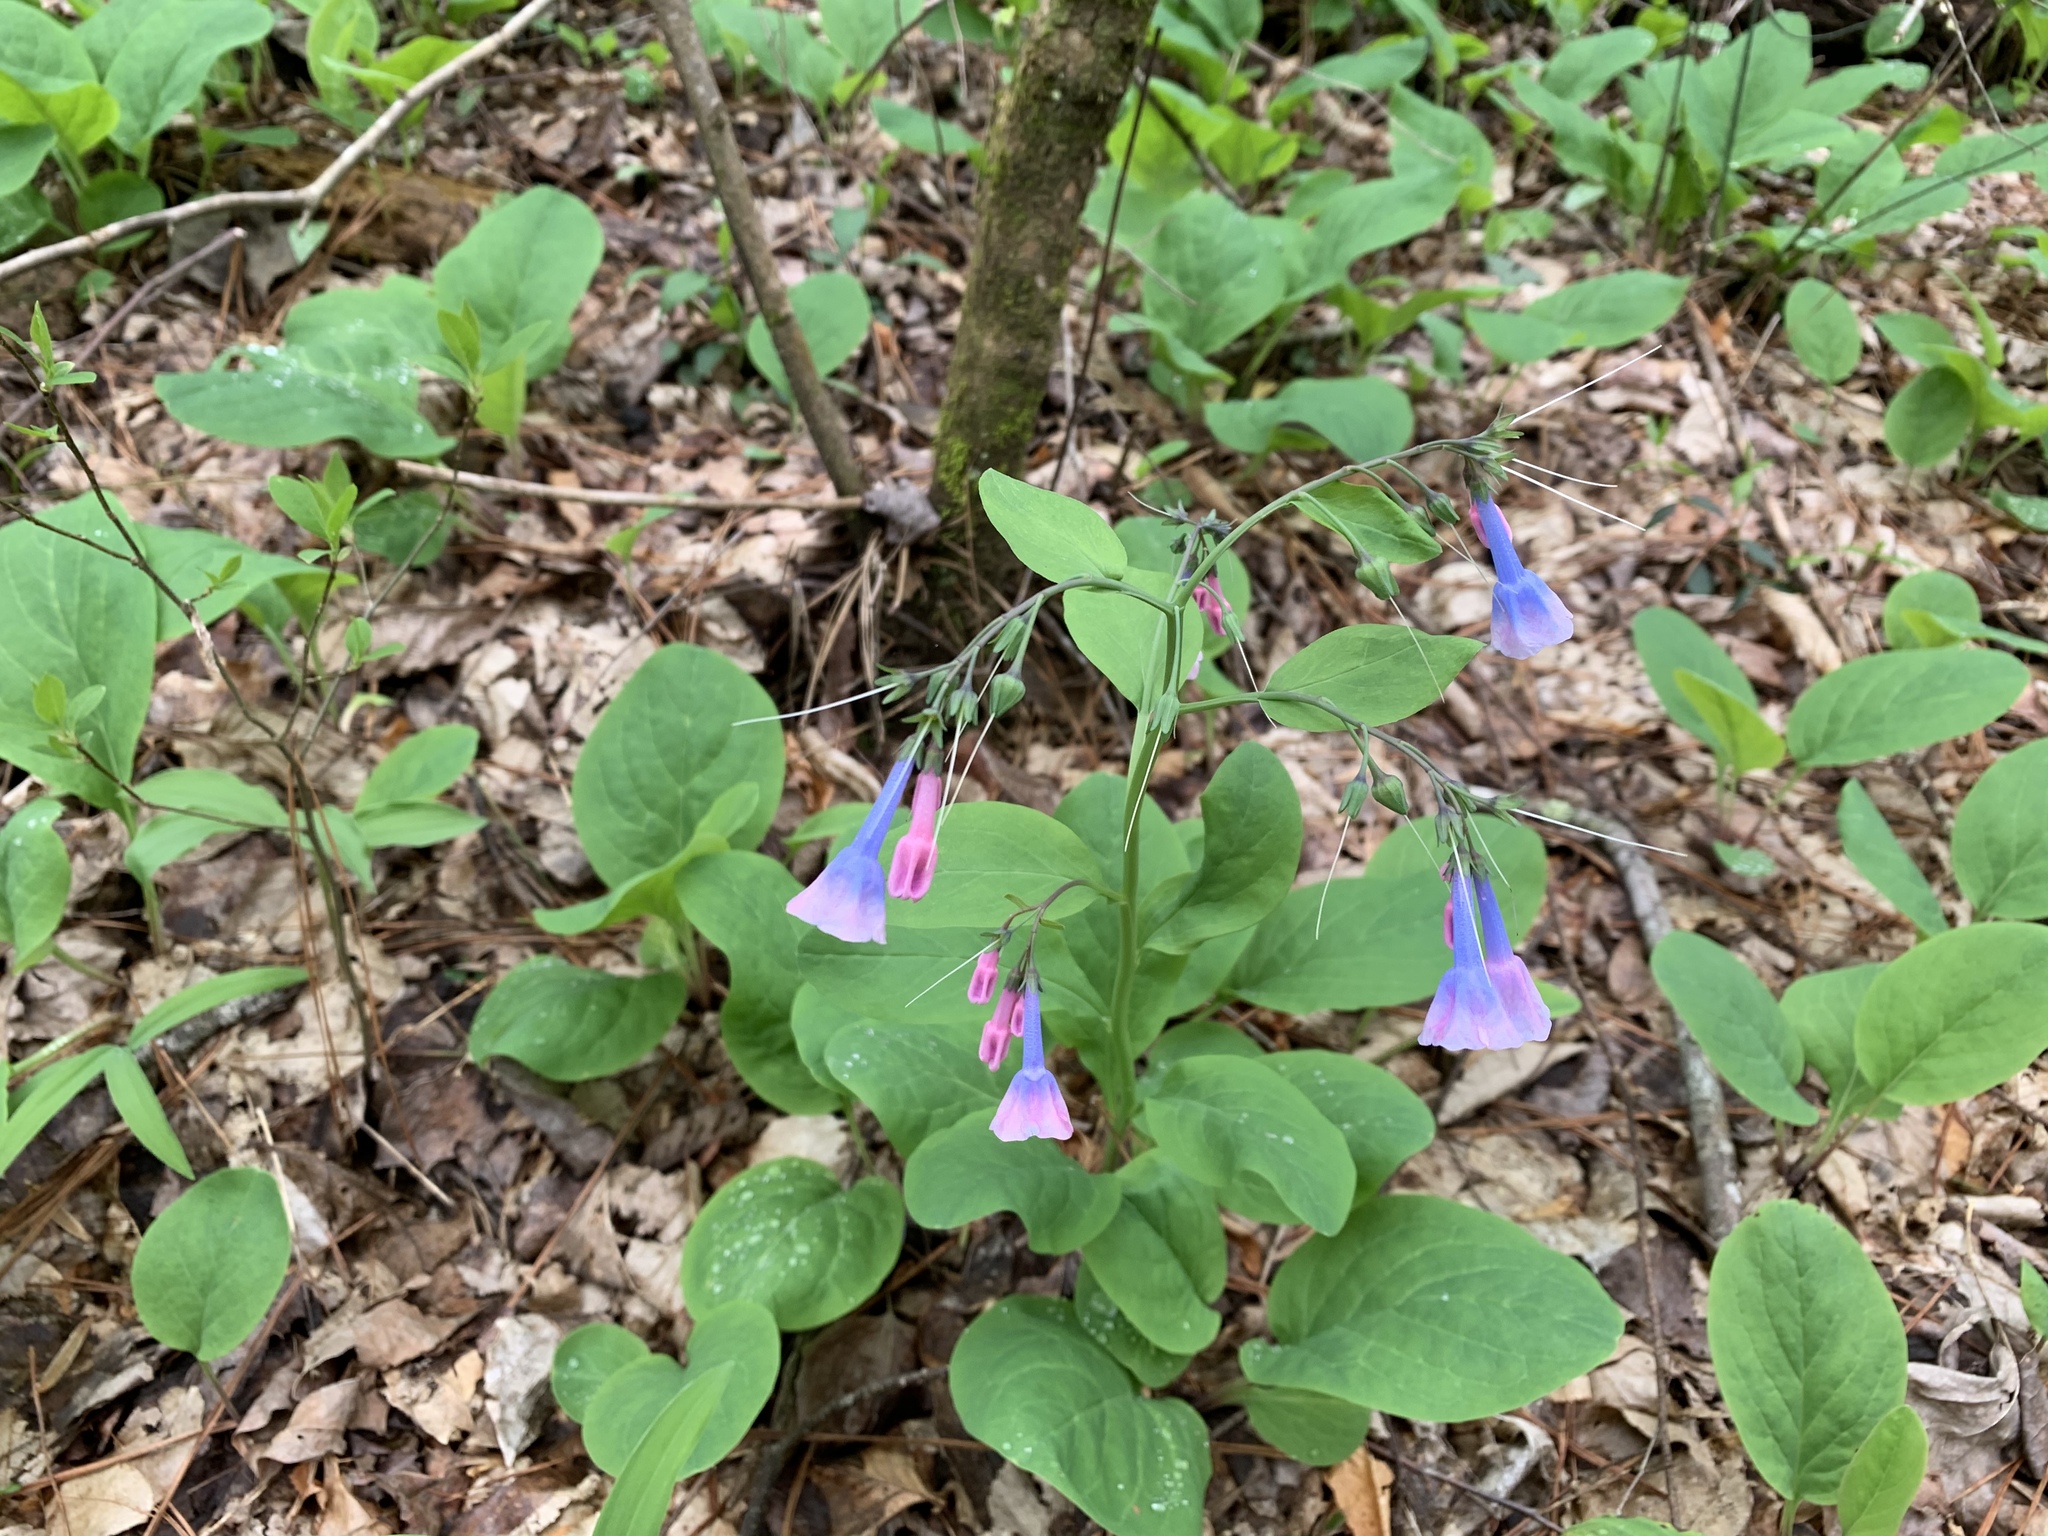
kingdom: Plantae
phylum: Tracheophyta
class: Magnoliopsida
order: Boraginales
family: Boraginaceae
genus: Mertensia
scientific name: Mertensia virginica
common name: Virginia bluebells
